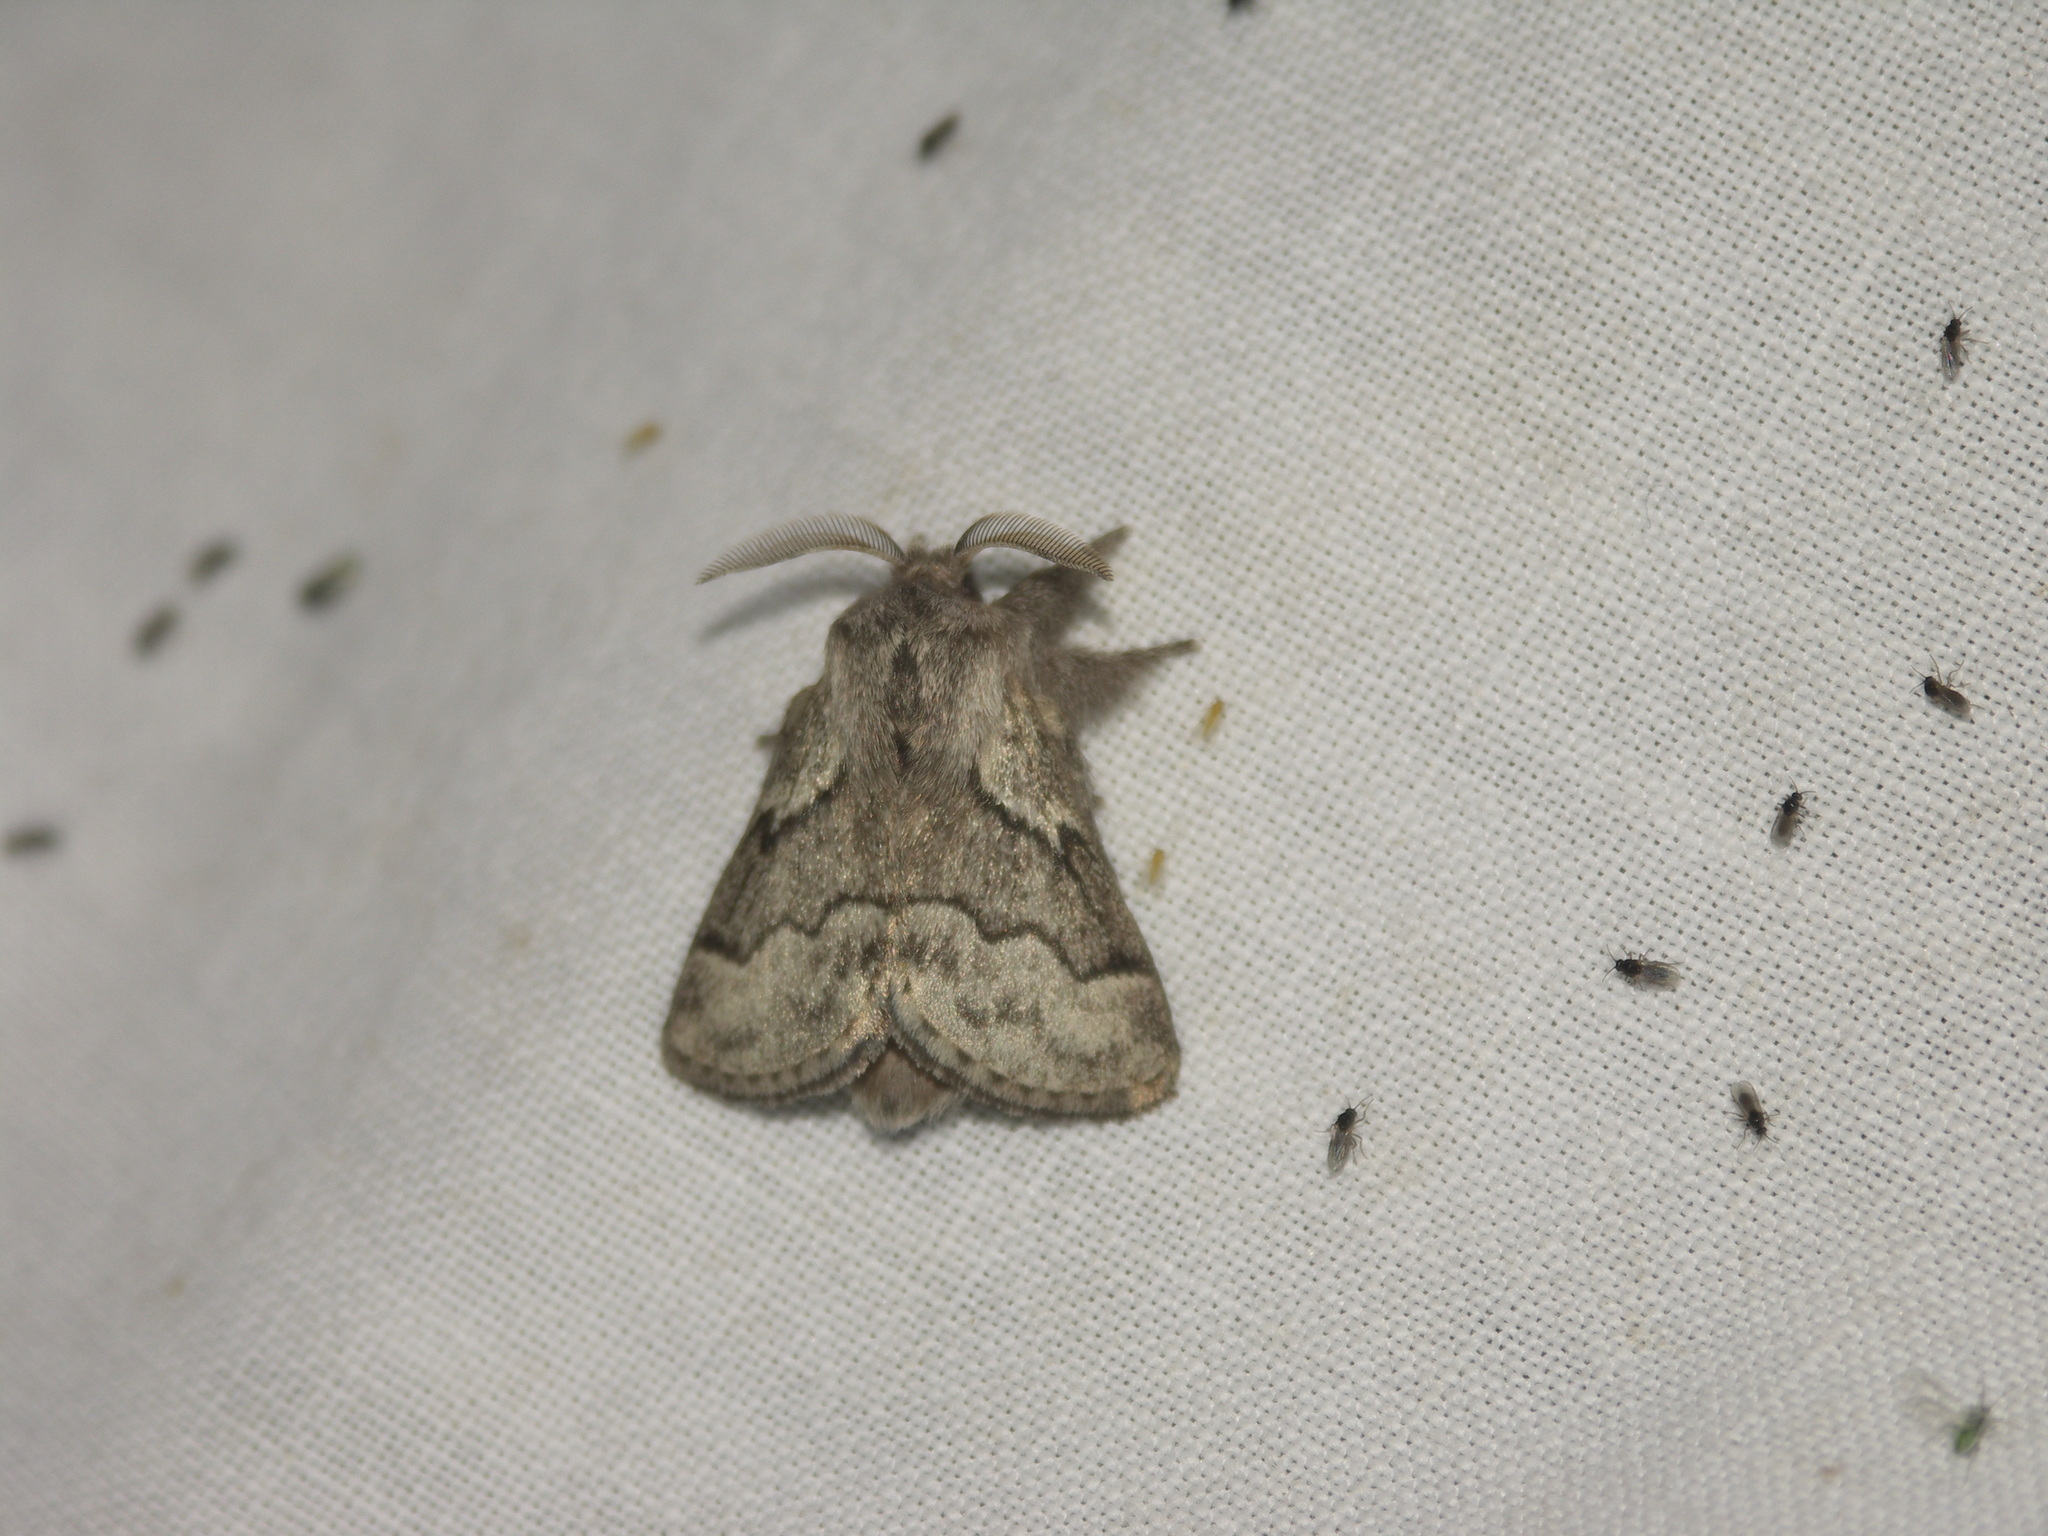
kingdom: Animalia
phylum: Arthropoda
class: Insecta
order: Lepidoptera
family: Lasiocampidae
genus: Trichiura
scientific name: Trichiura crataegi
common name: Pale eggar
